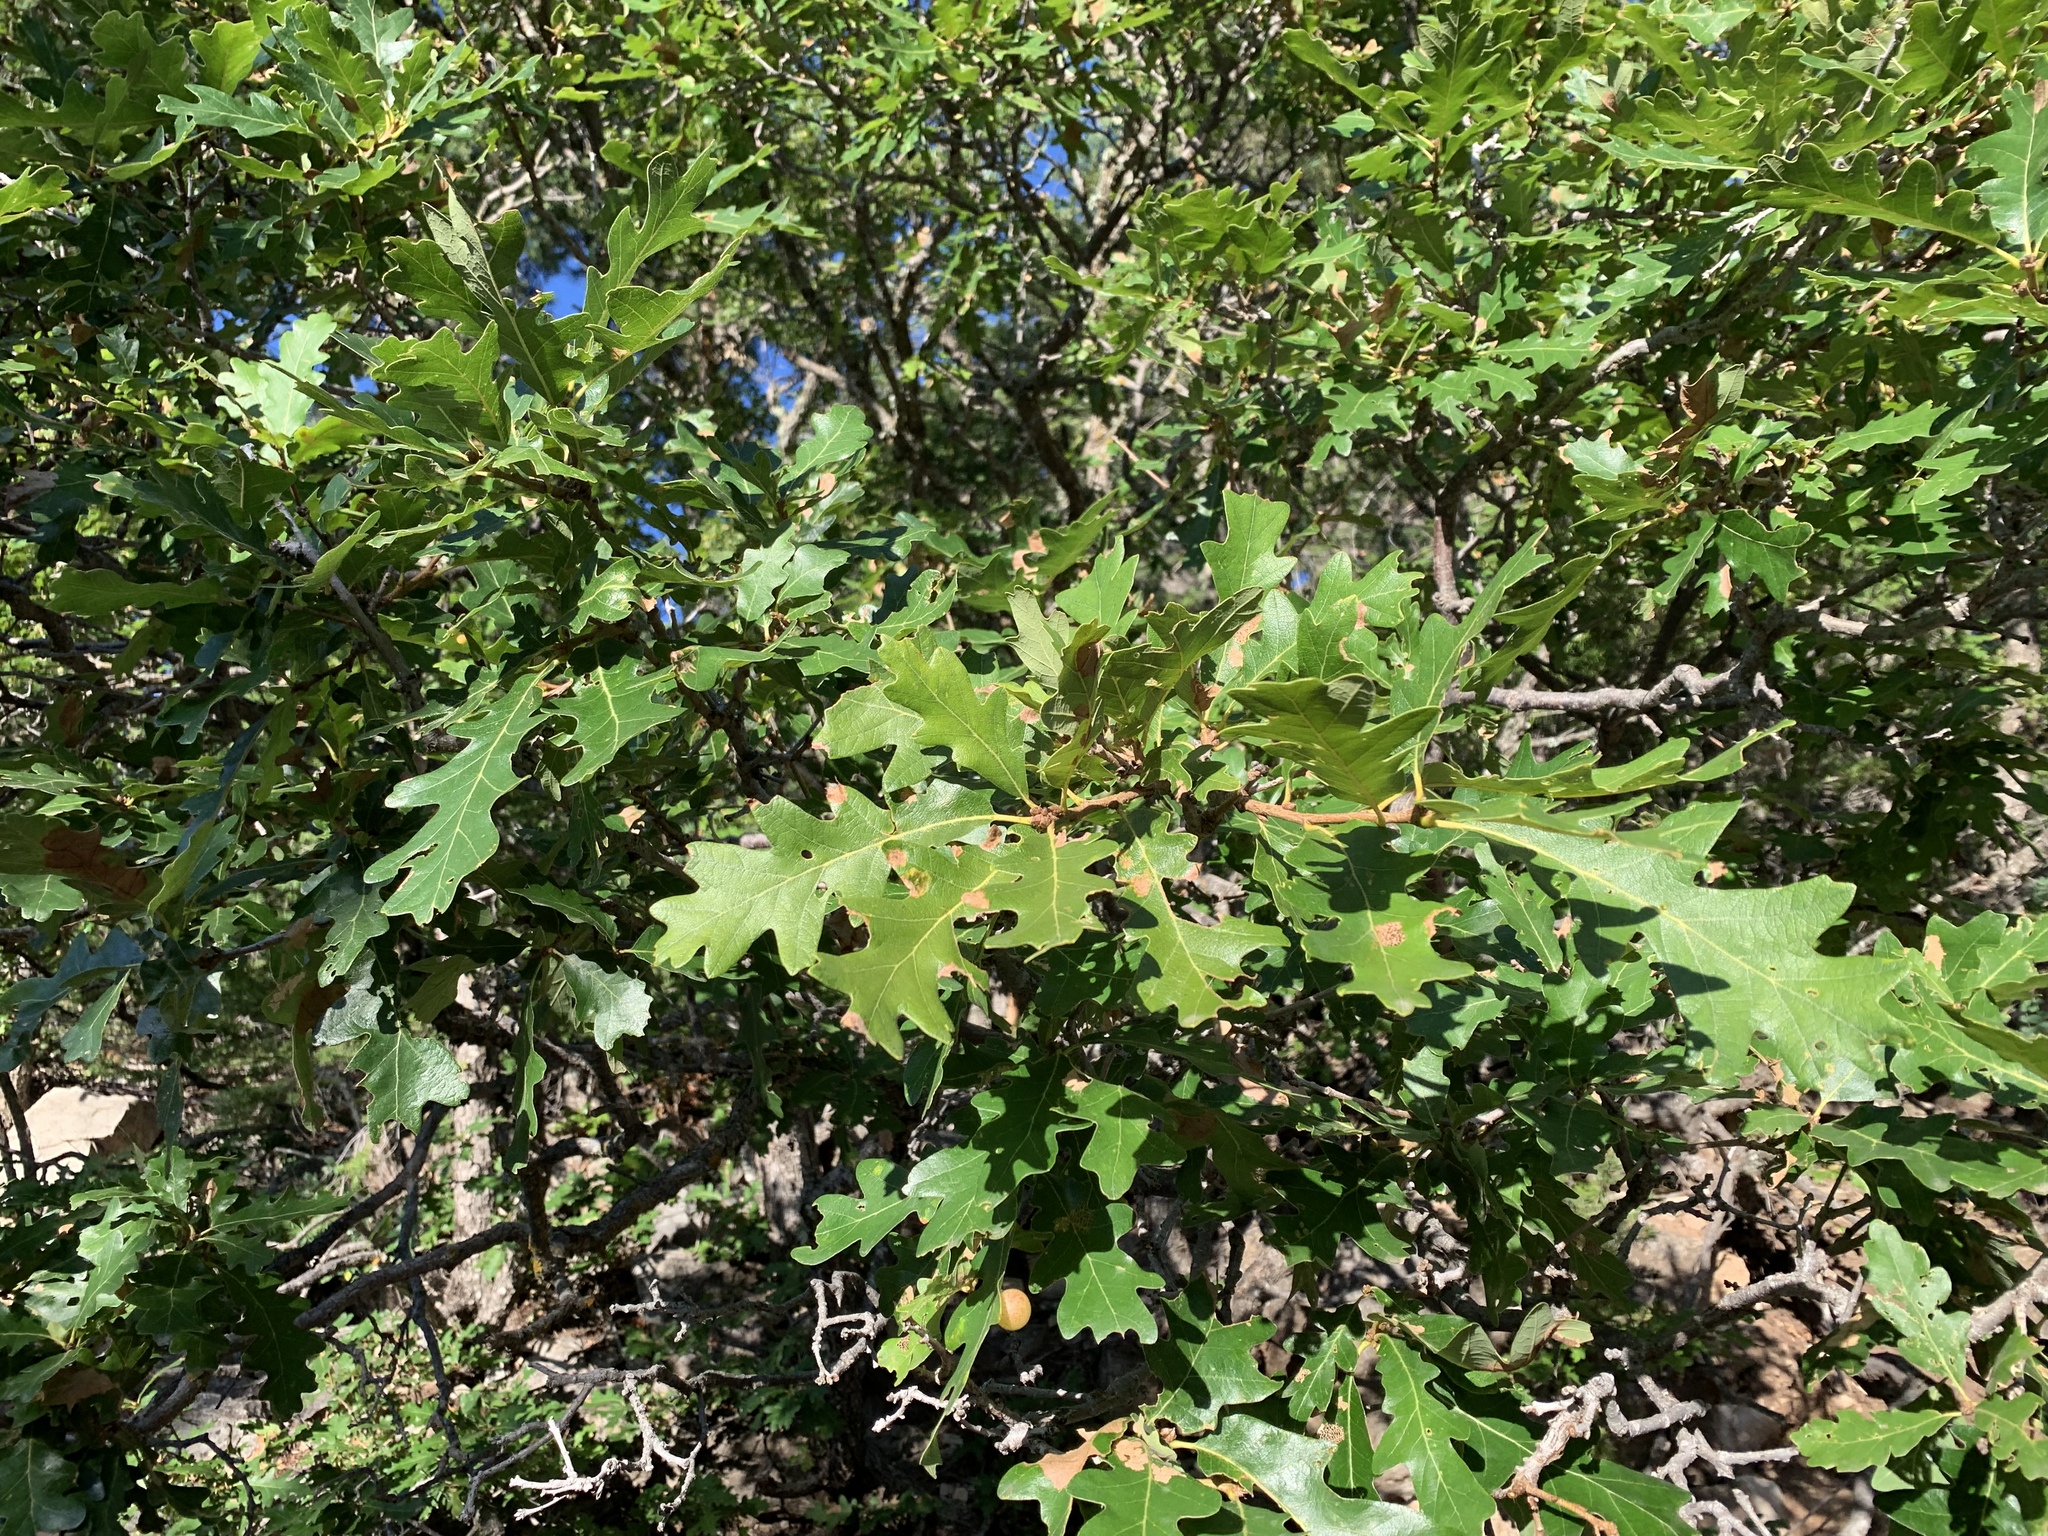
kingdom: Plantae
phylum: Tracheophyta
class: Magnoliopsida
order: Fagales
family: Fagaceae
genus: Quercus
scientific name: Quercus gambelii
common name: Gambel oak
